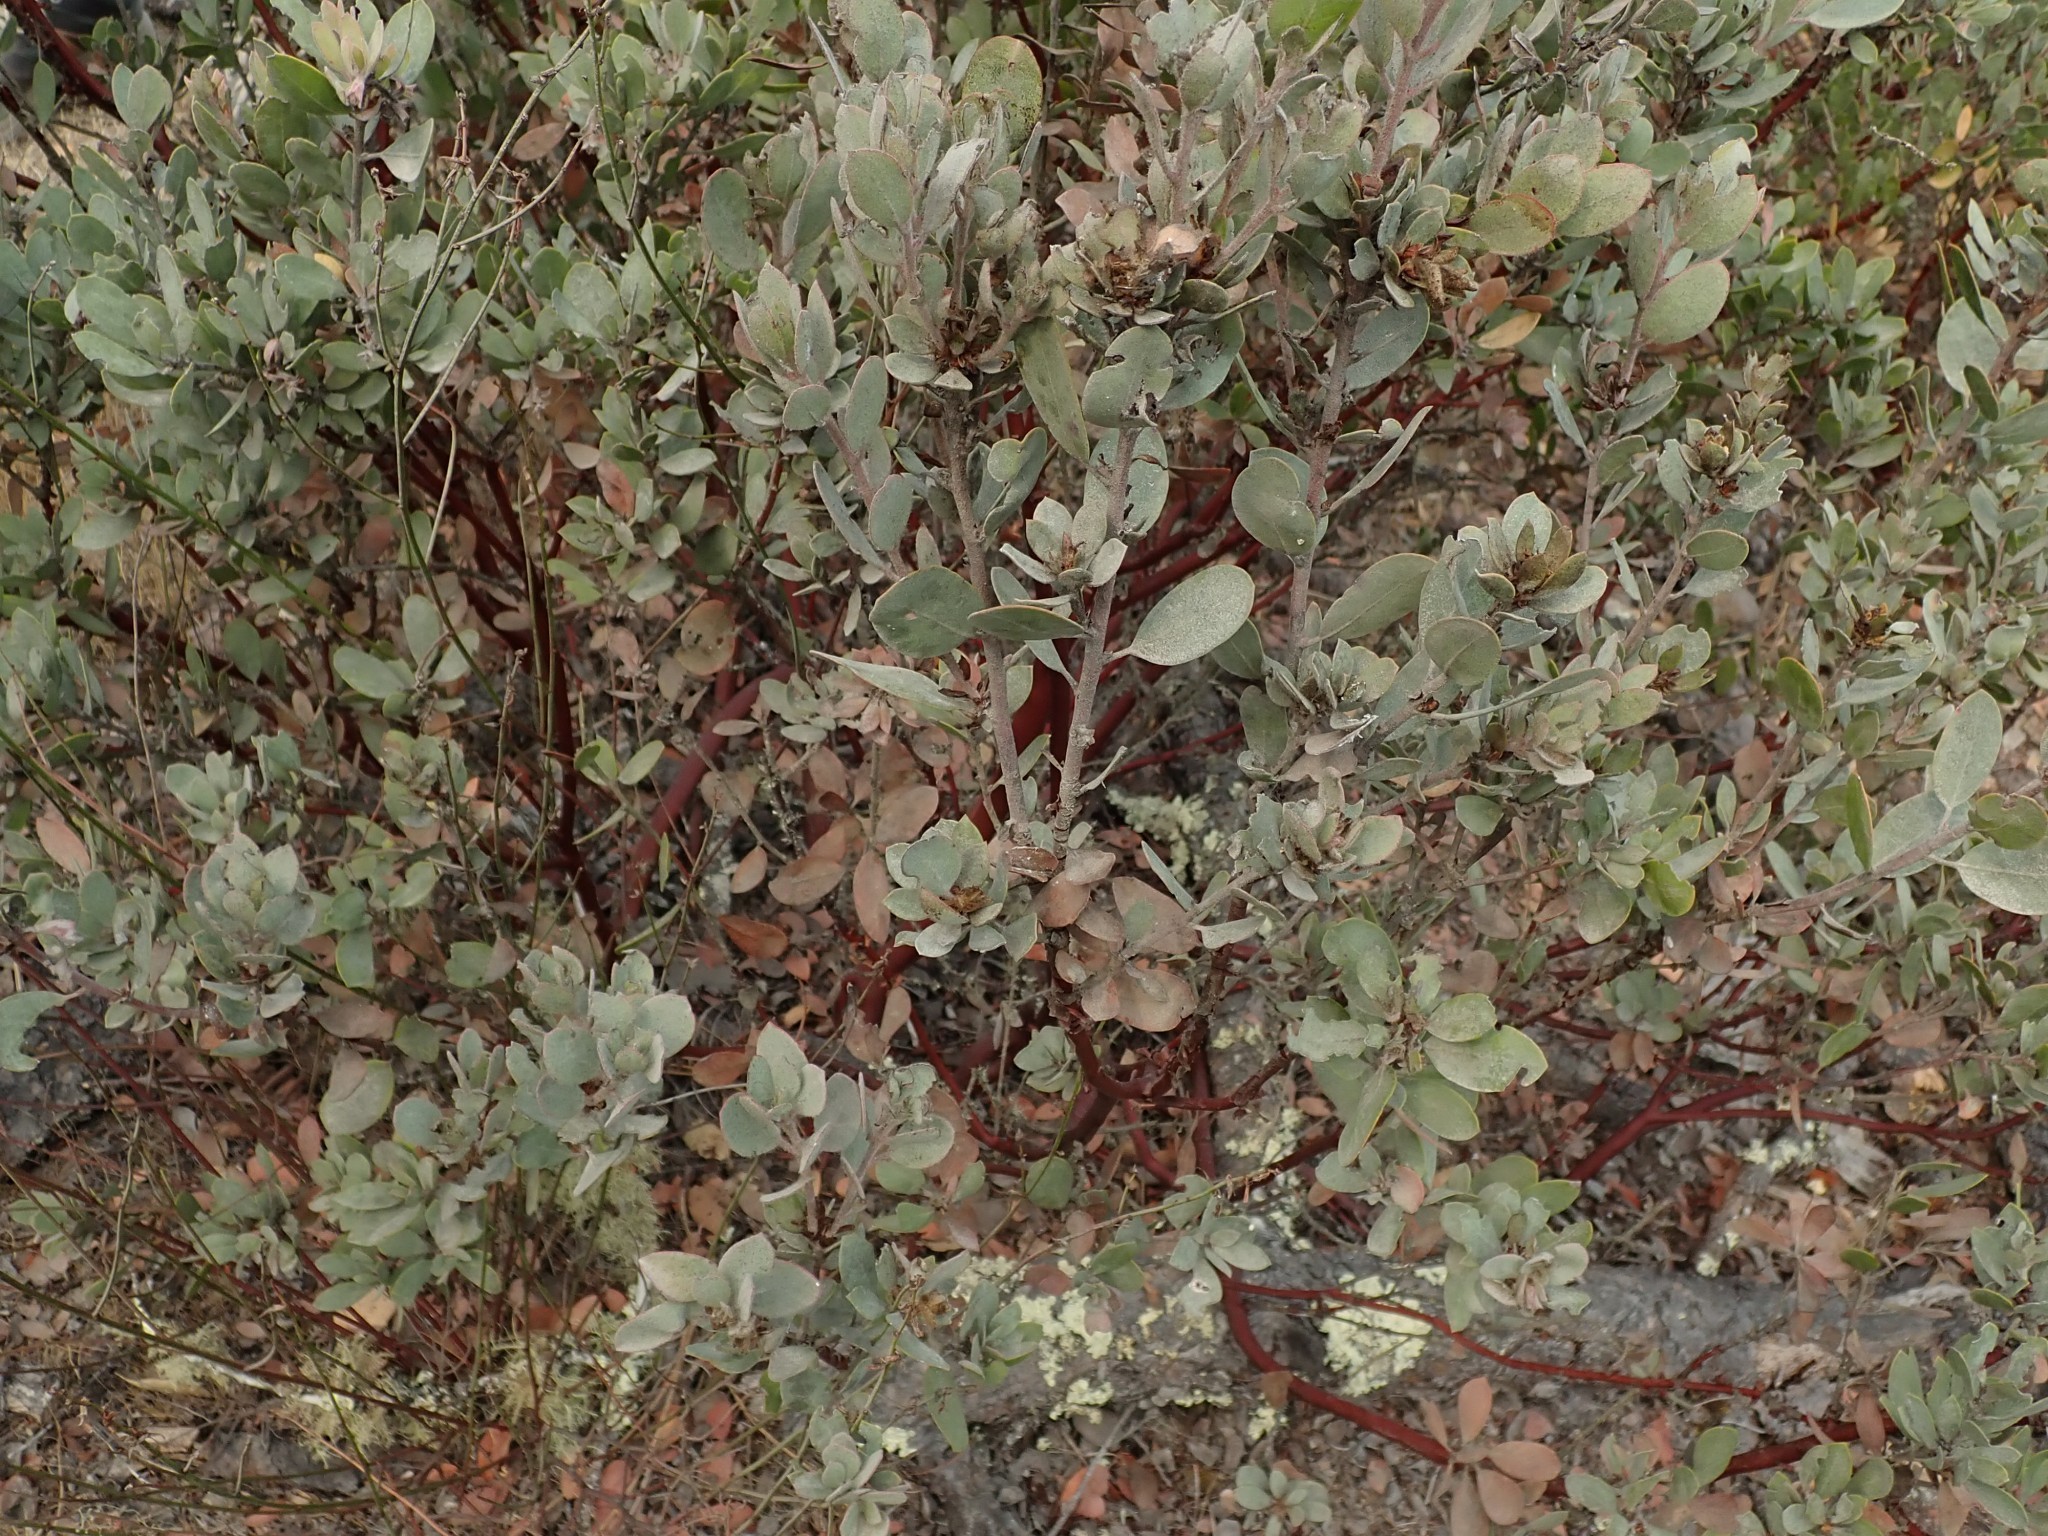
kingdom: Plantae
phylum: Tracheophyta
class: Magnoliopsida
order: Ericales
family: Ericaceae
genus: Arctostaphylos
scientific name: Arctostaphylos silvicola
